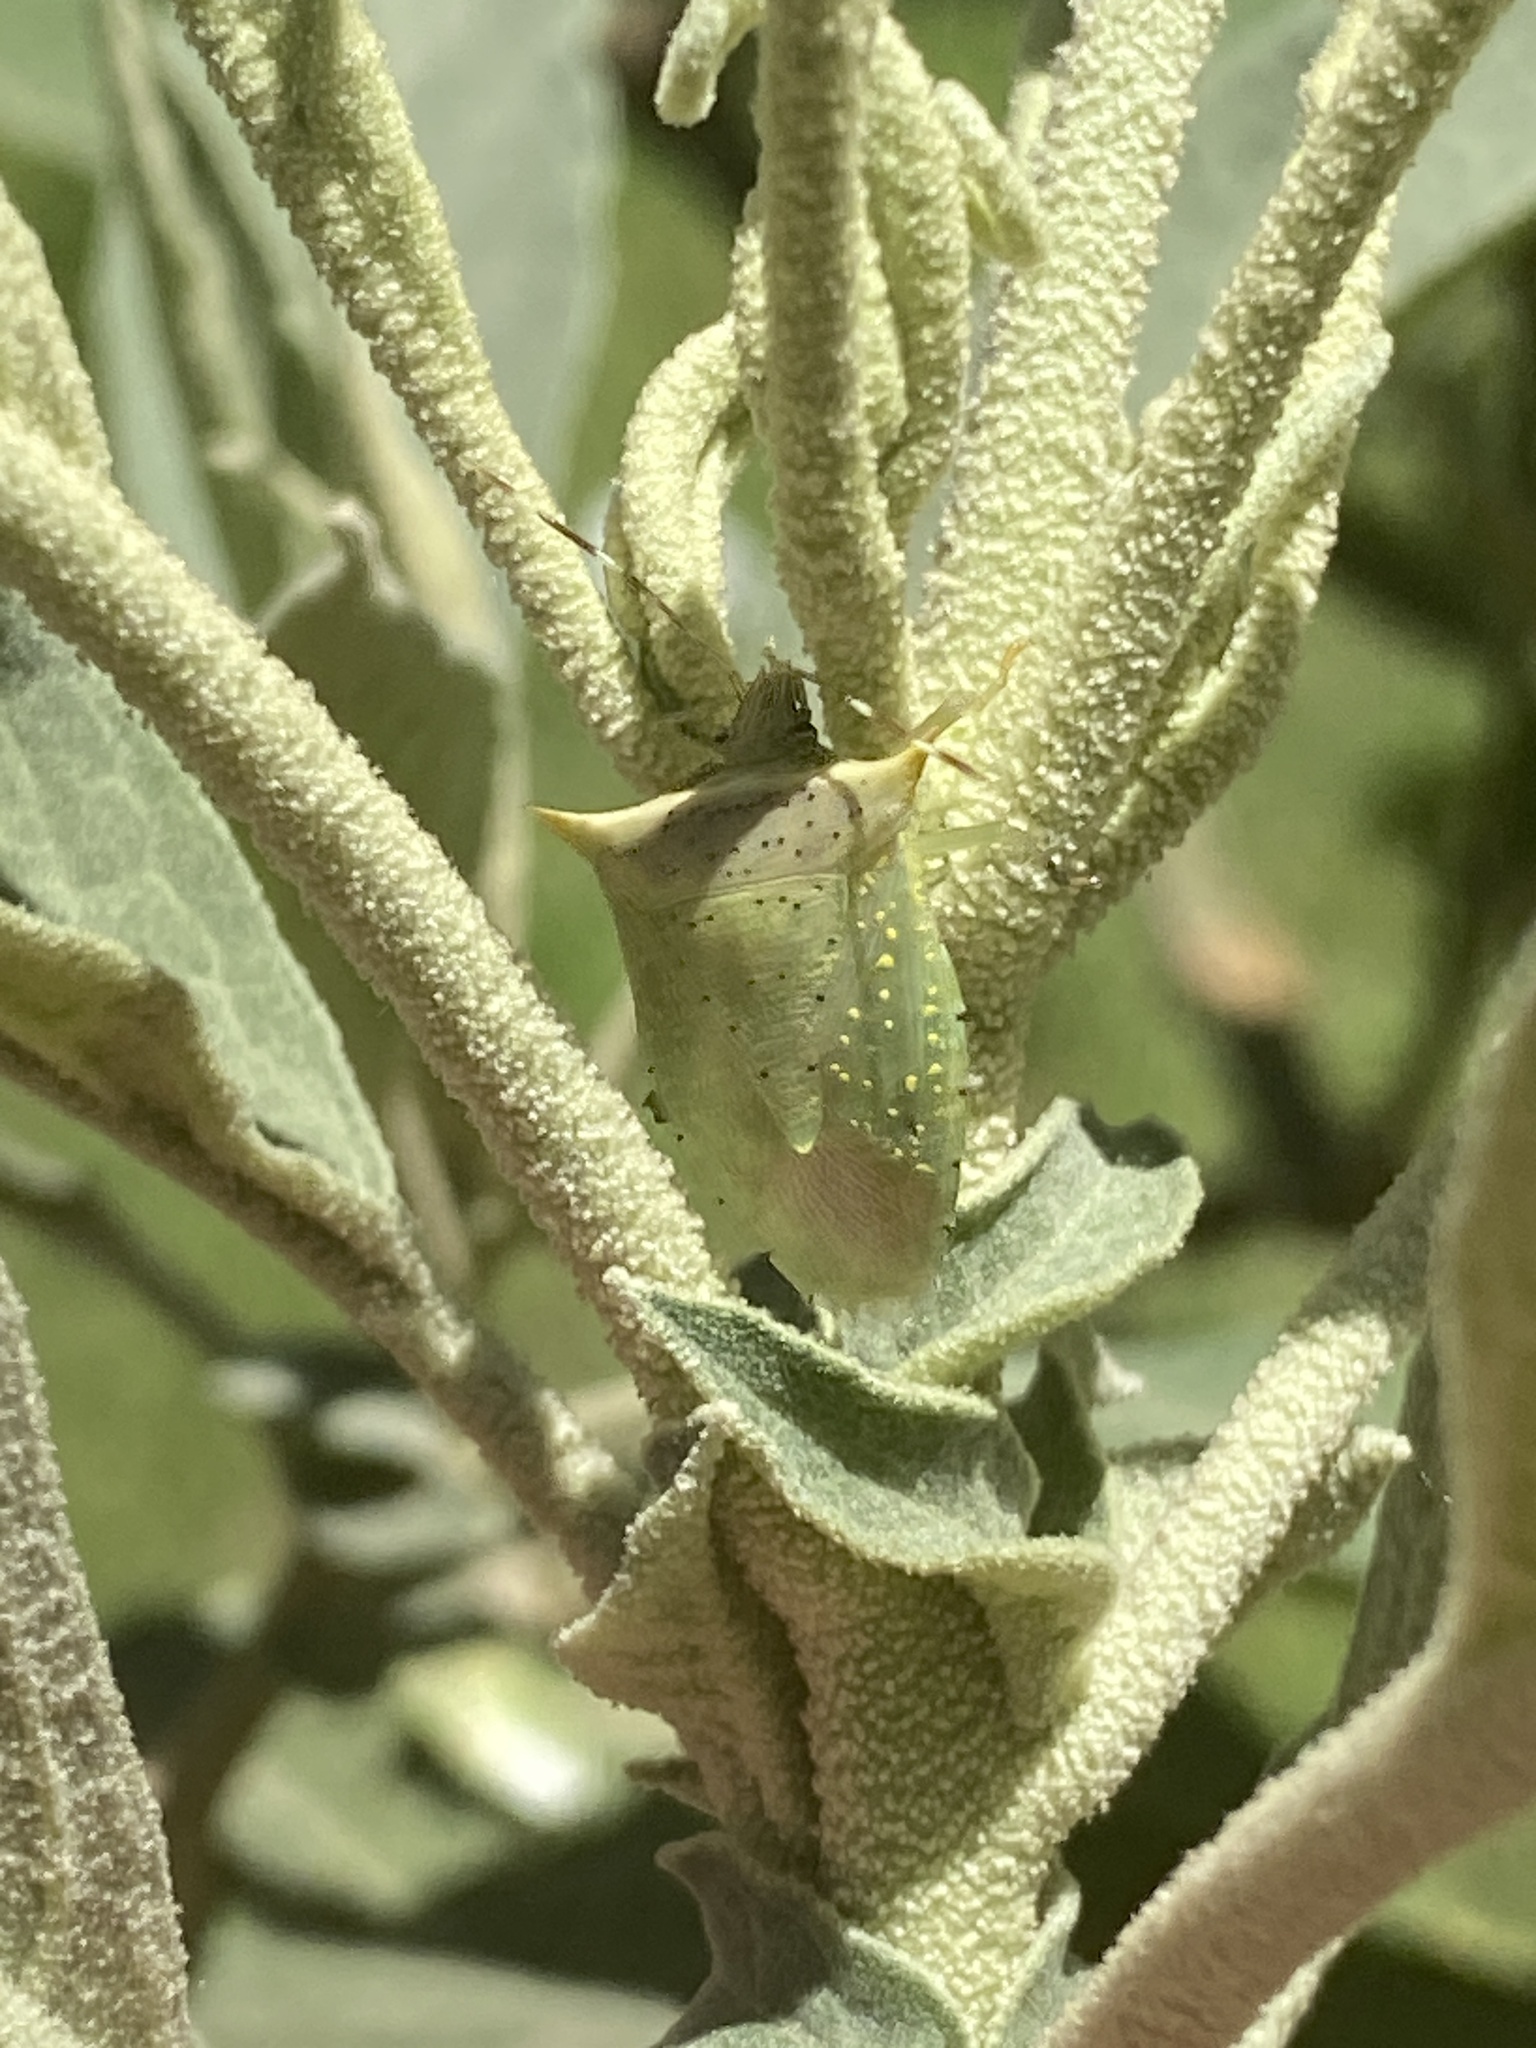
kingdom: Animalia
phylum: Arthropoda
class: Insecta
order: Hemiptera
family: Pentatomidae
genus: Arvelius
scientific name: Arvelius albopunctatus
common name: Tomato stink bug
